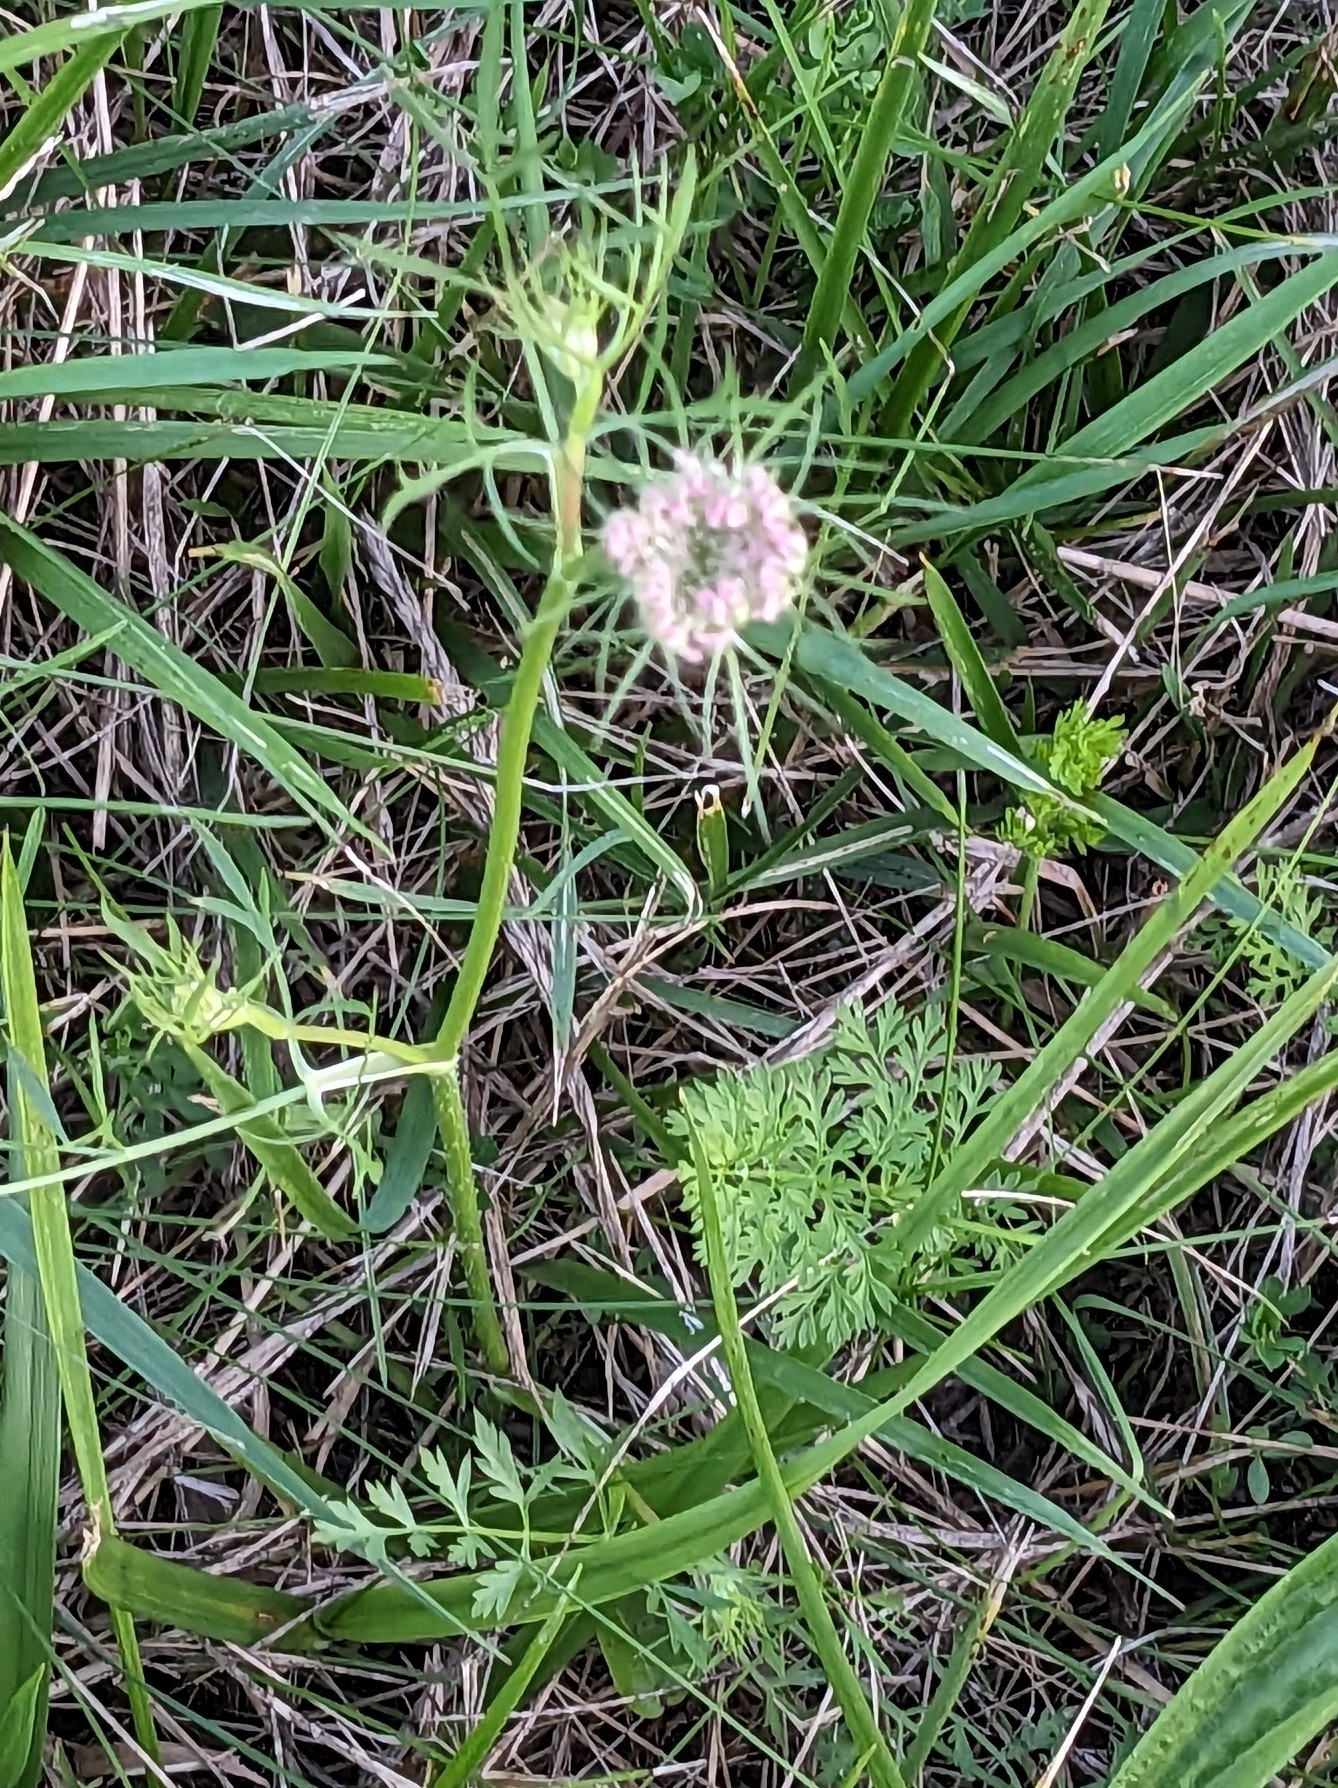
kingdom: Plantae
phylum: Tracheophyta
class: Magnoliopsida
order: Apiales
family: Apiaceae
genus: Daucus
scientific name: Daucus carota
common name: Wild carrot
